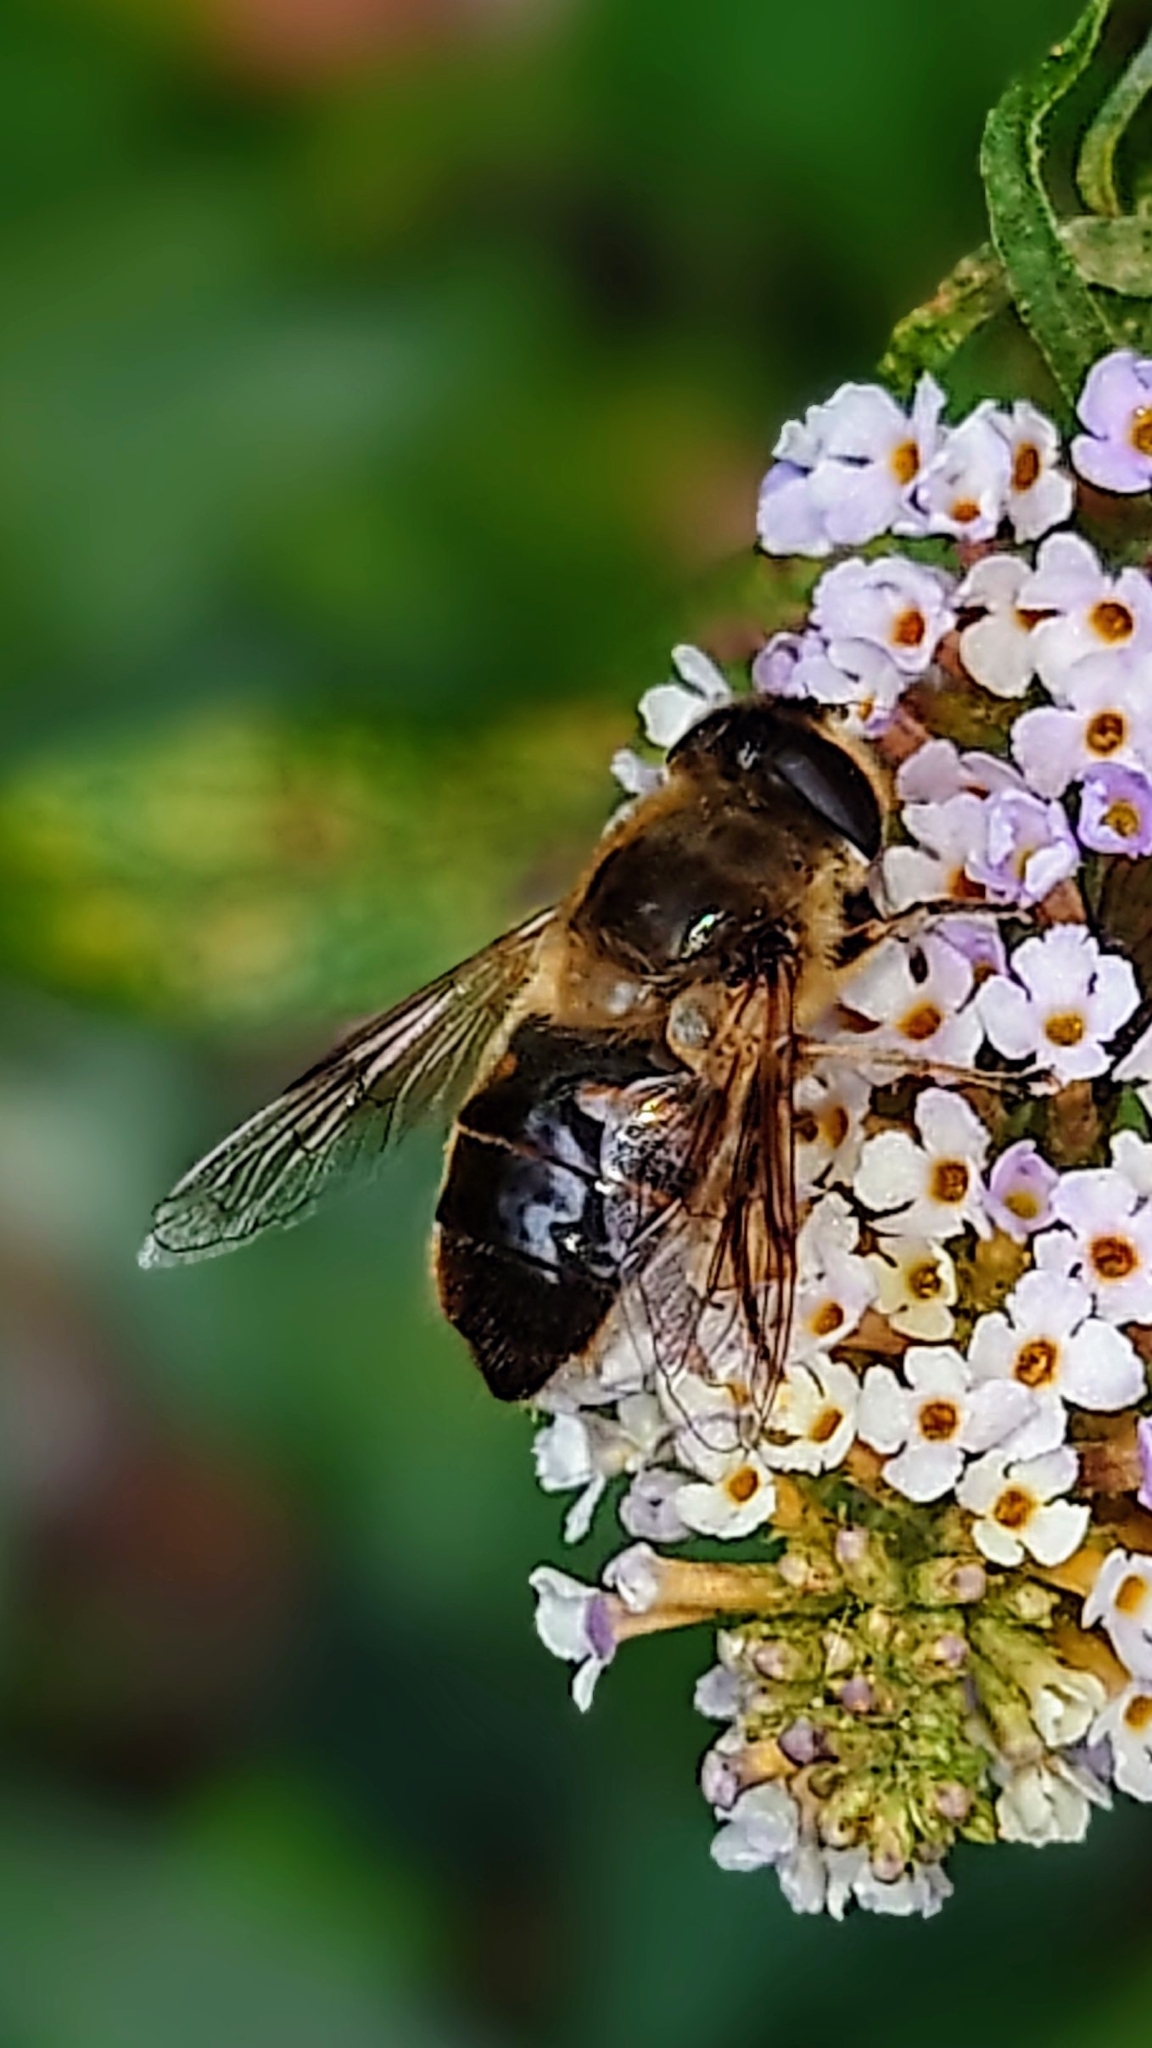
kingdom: Animalia
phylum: Arthropoda
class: Insecta
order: Diptera
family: Syrphidae
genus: Eristalis
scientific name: Eristalis tenax
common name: Drone fly
